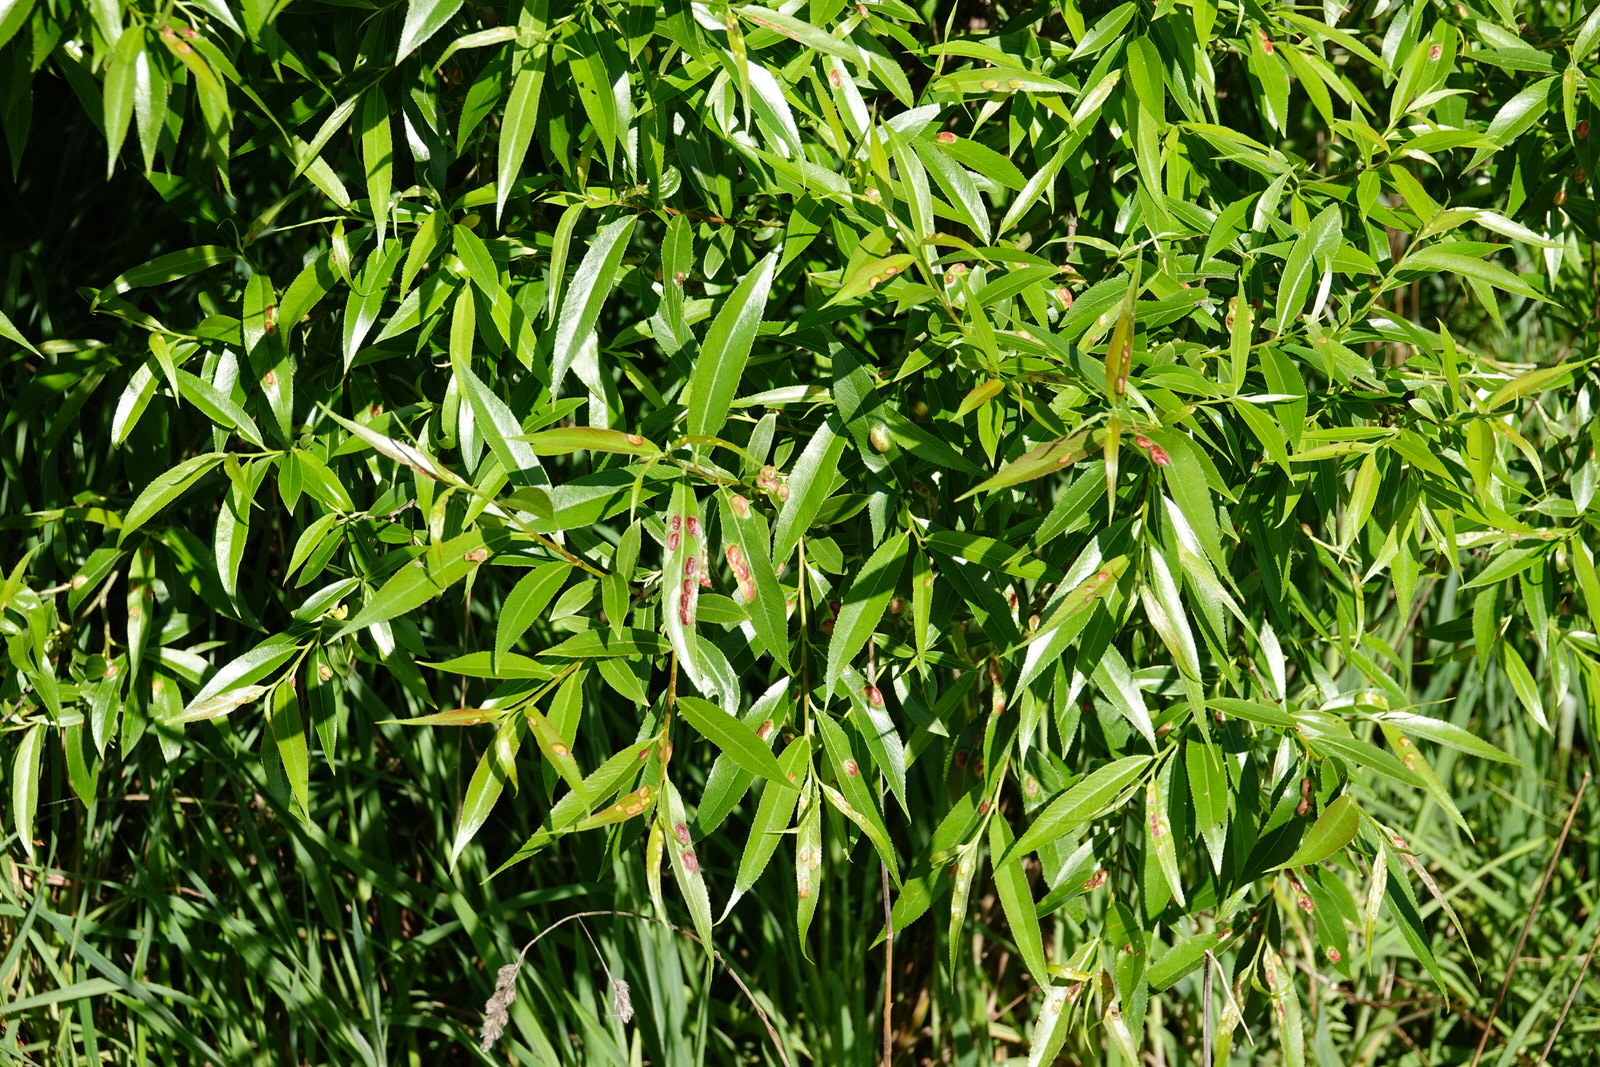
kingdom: Animalia
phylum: Arthropoda
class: Insecta
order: Hymenoptera
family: Tenthredinidae
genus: Pontania
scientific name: Pontania proxima
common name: Common sawfly
